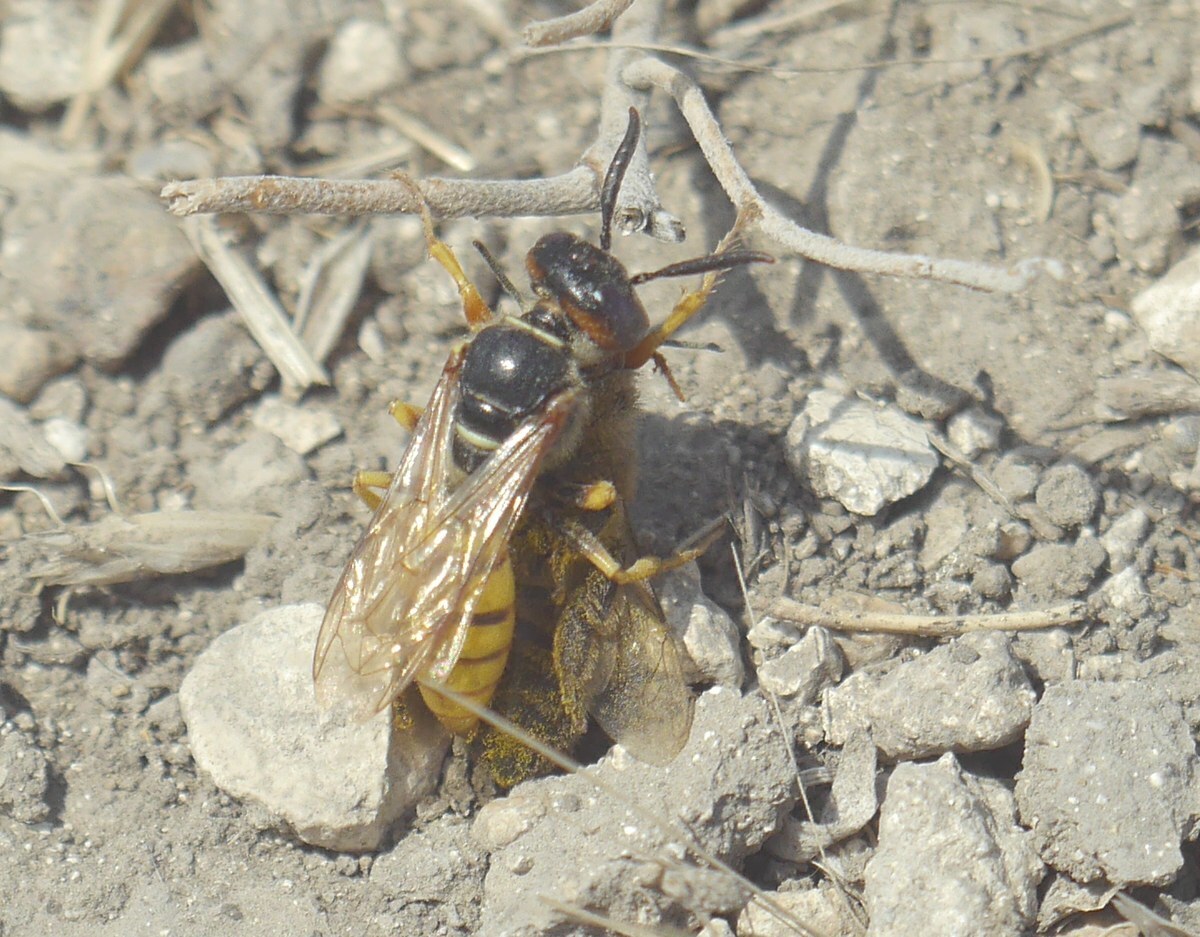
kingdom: Animalia
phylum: Arthropoda
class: Insecta
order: Hymenoptera
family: Crabronidae
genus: Philanthus
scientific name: Philanthus triangulum
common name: Bee wolf
